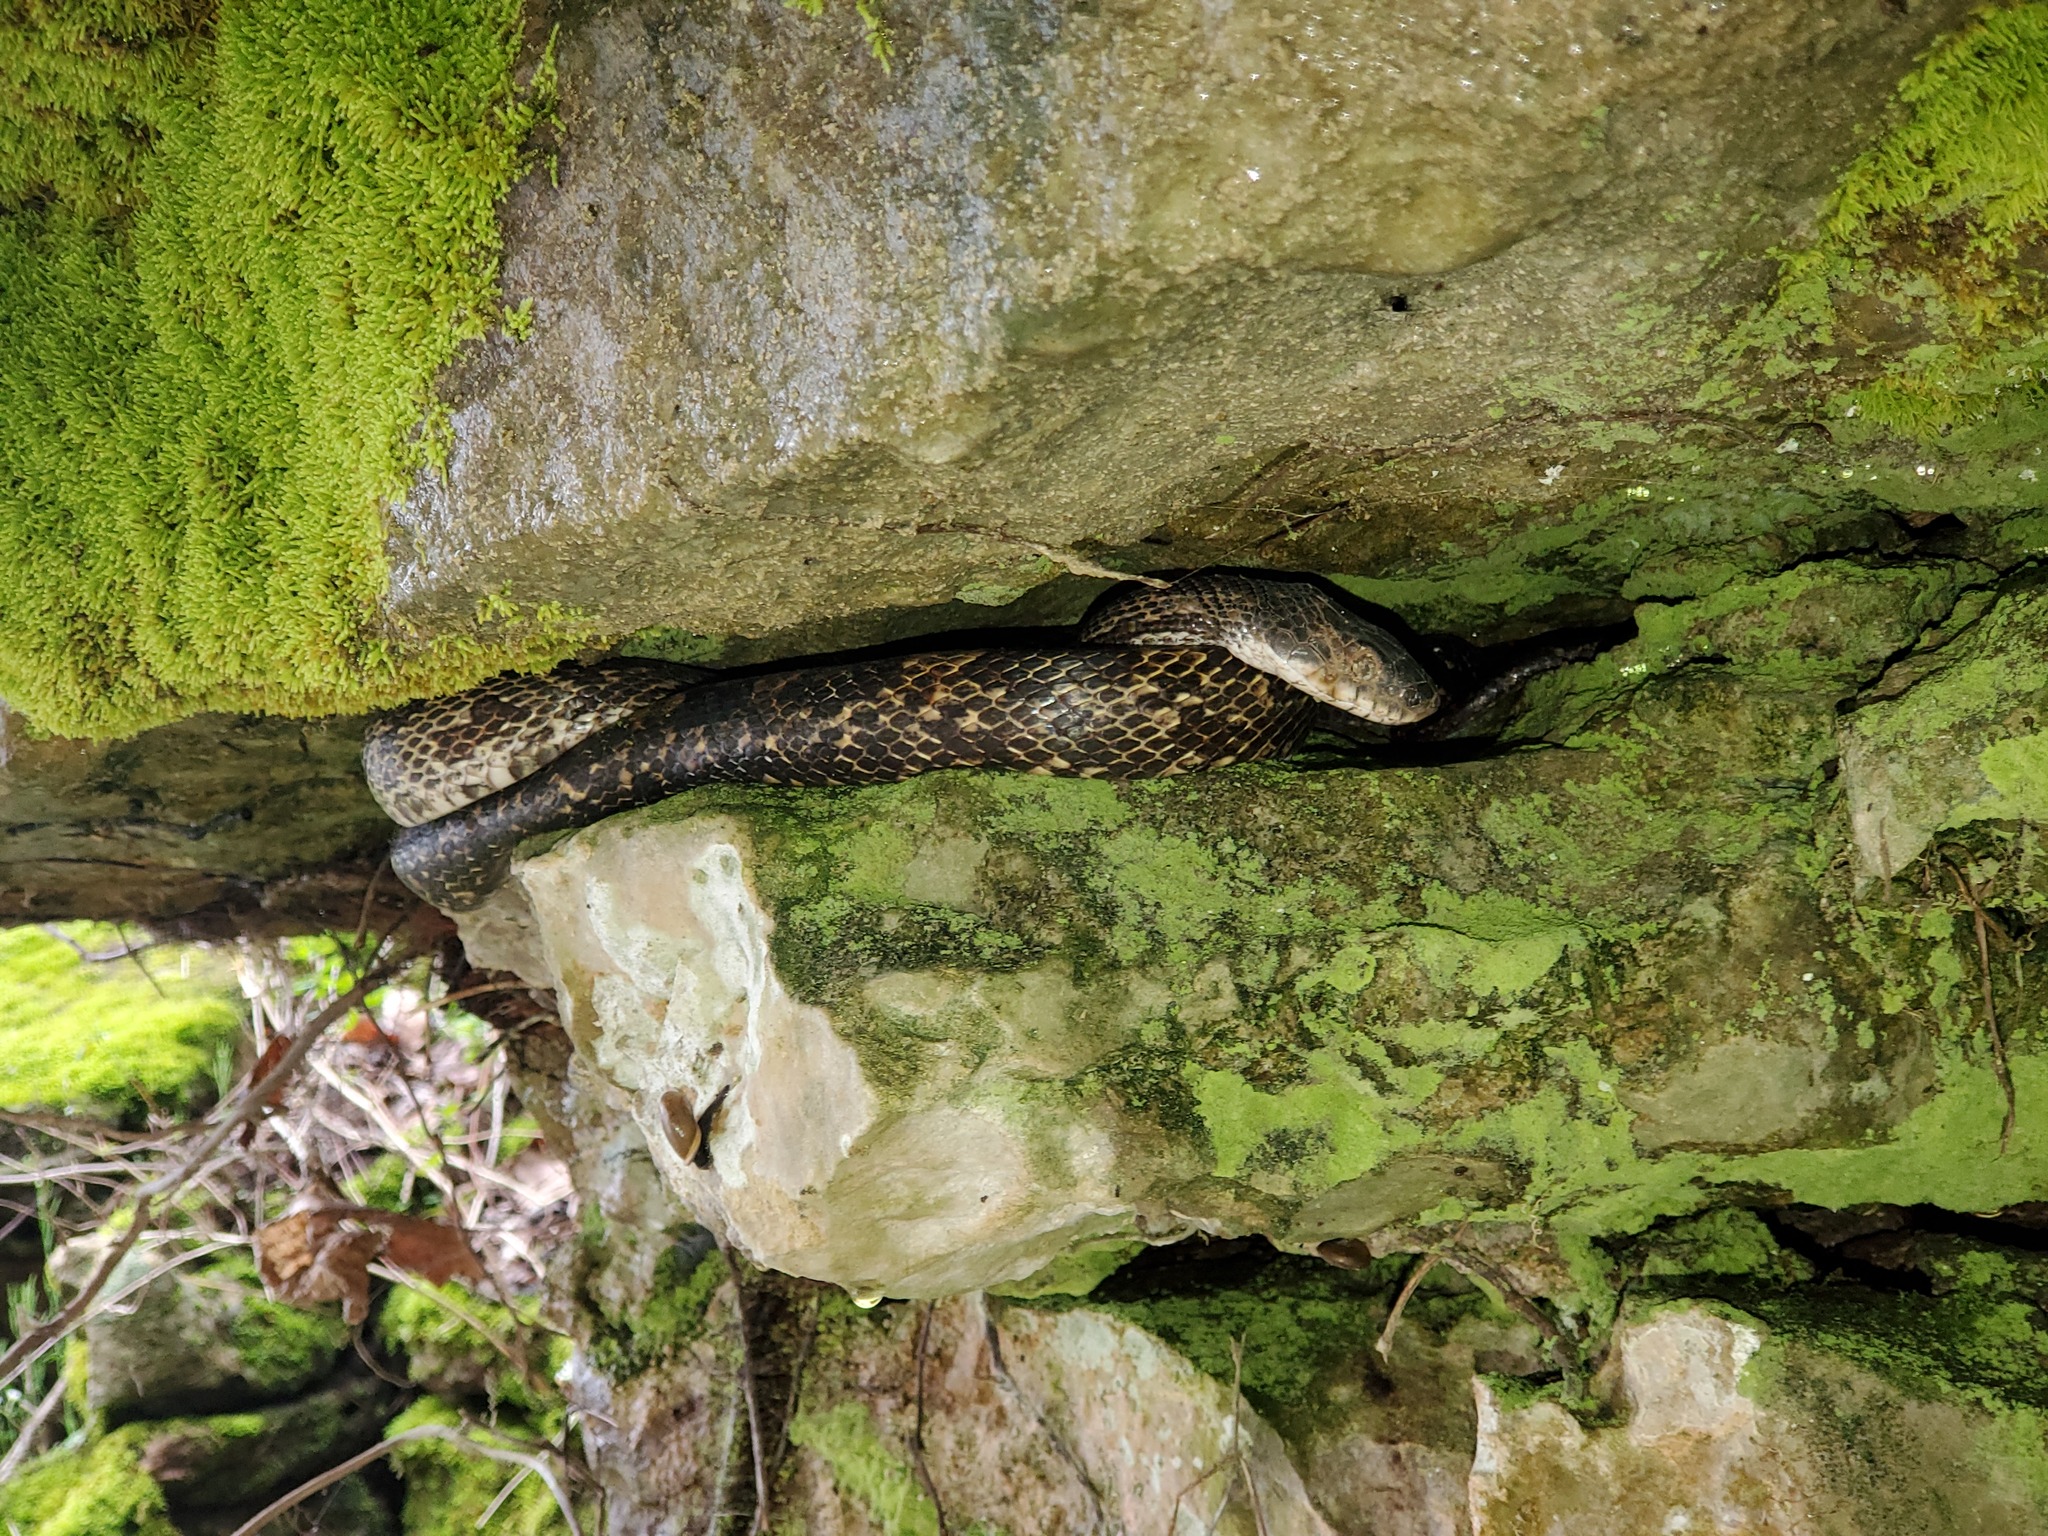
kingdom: Animalia
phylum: Chordata
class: Squamata
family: Colubridae
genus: Pantherophis
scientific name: Pantherophis spiloides
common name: Gray rat snake
